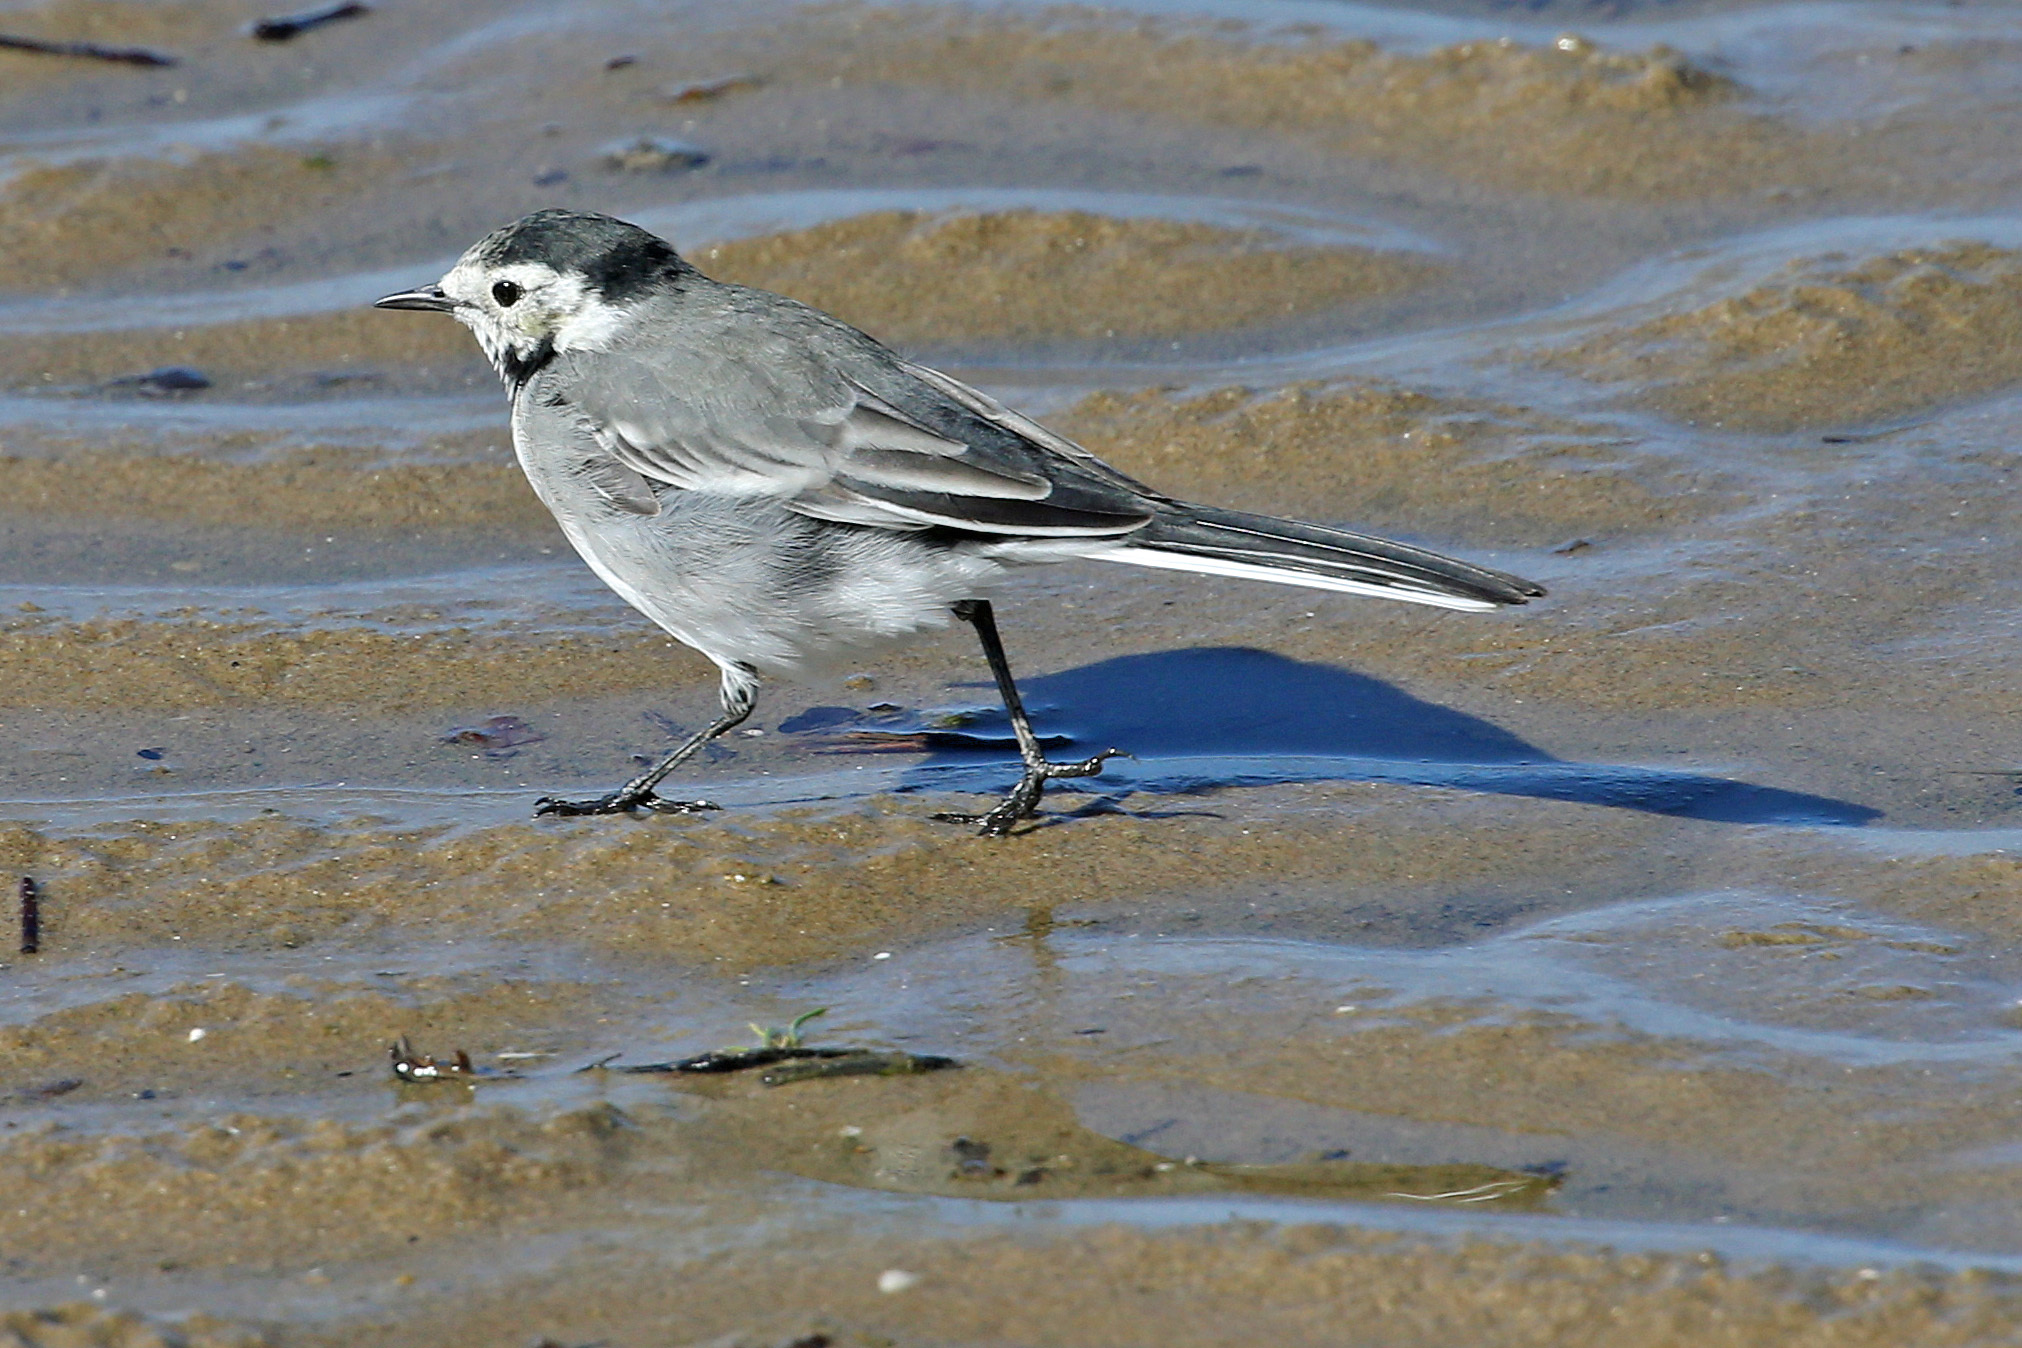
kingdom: Animalia
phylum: Chordata
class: Aves
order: Passeriformes
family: Motacillidae
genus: Motacilla
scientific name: Motacilla alba
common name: White wagtail
